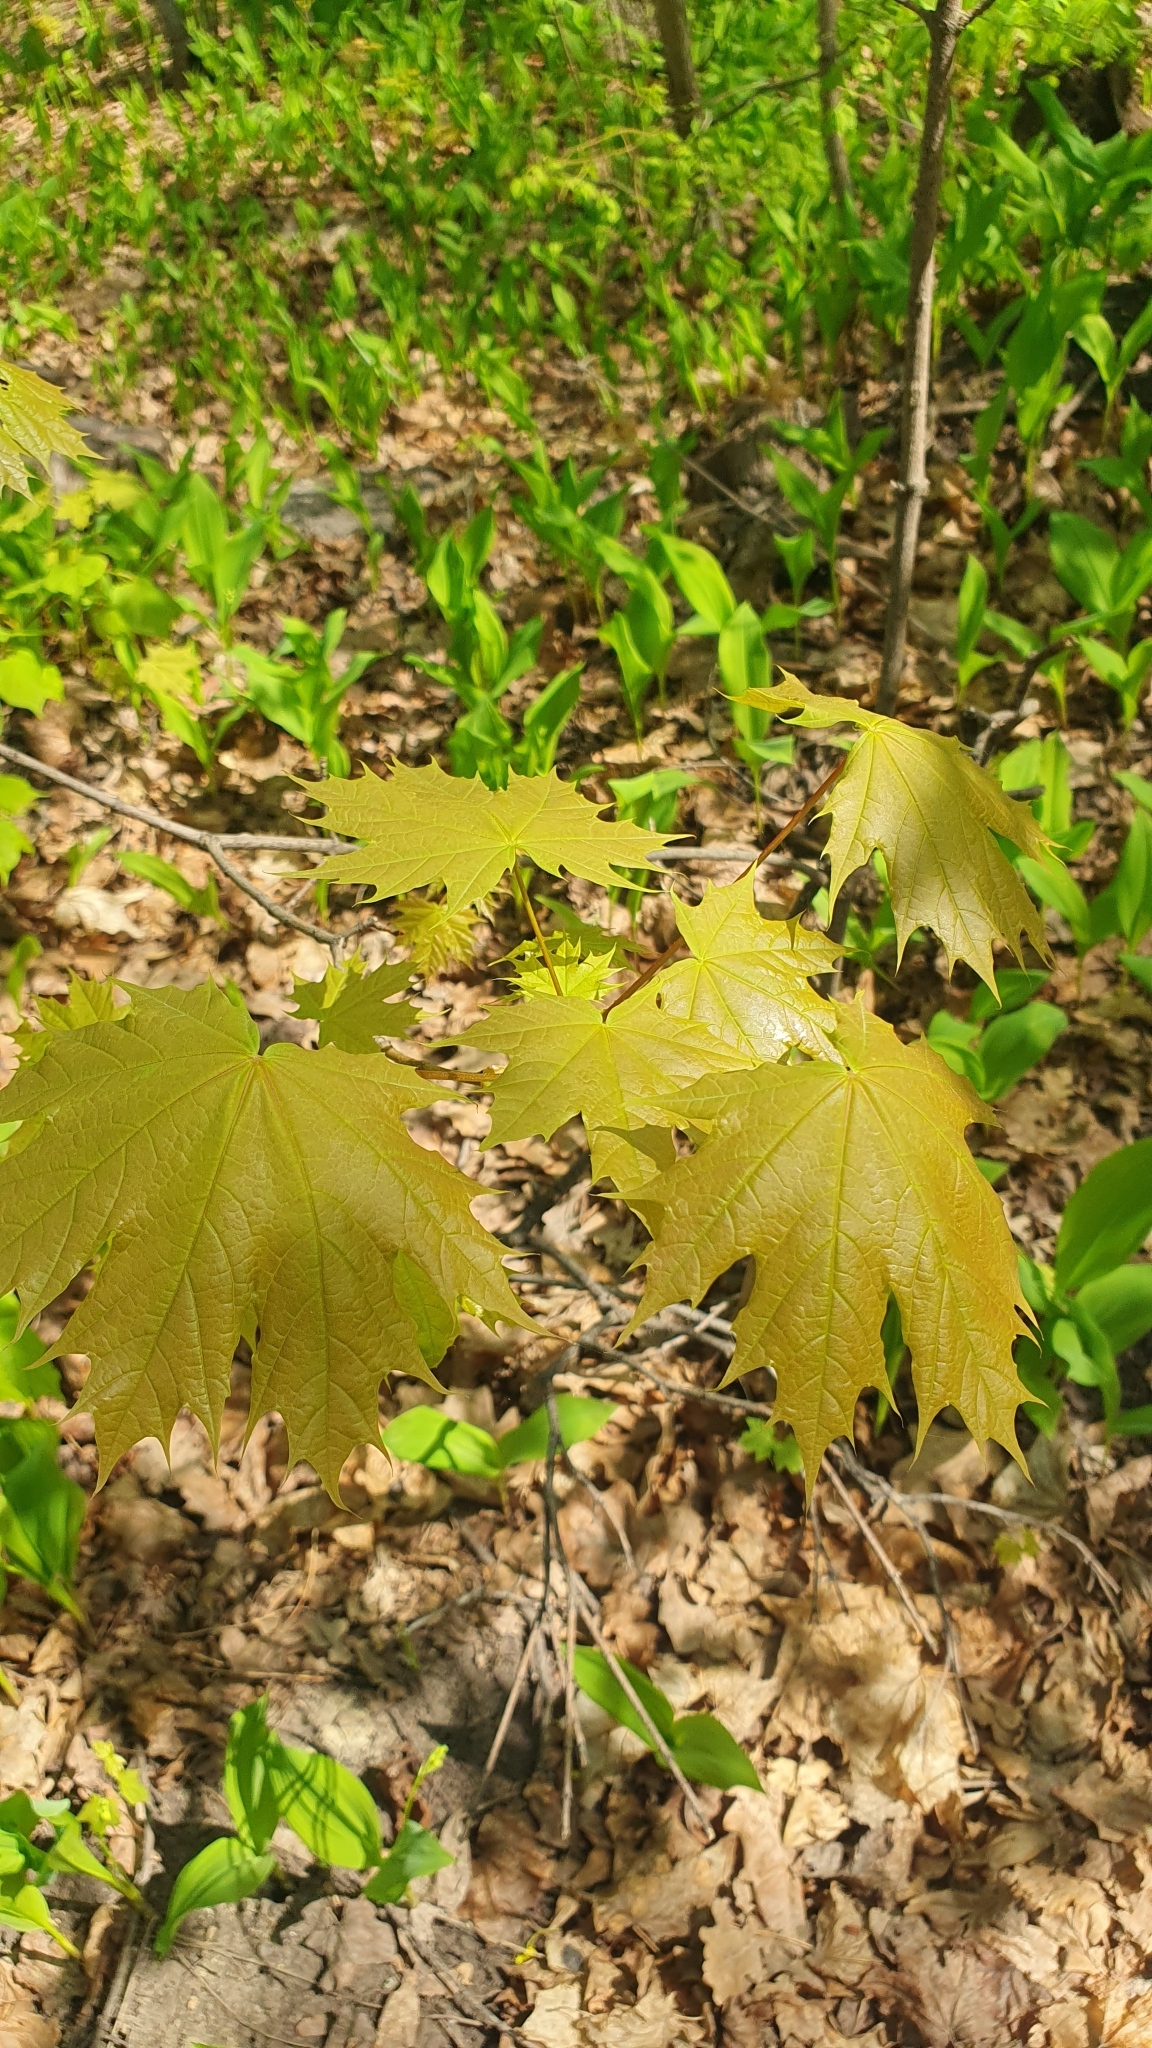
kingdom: Plantae
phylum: Tracheophyta
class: Magnoliopsida
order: Sapindales
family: Sapindaceae
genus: Acer
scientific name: Acer platanoides
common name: Norway maple
